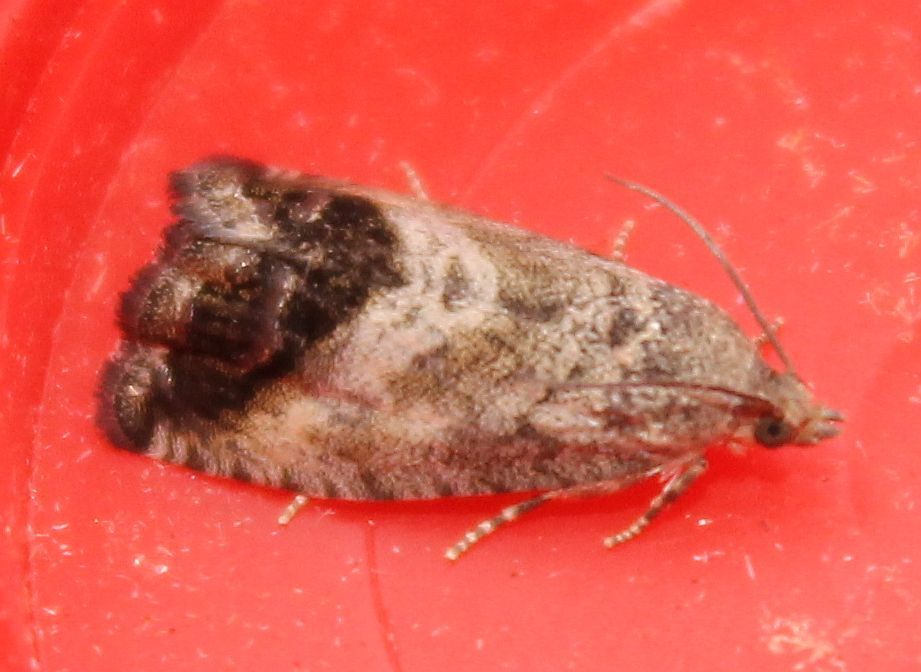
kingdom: Animalia
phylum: Arthropoda
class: Insecta
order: Lepidoptera
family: Tortricidae
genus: Cydia
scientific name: Cydia splendana
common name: De: kastanienwickler, eichenwickler es: oruga de la castaña fr: carpocapse des châtaignes it: cidia o tortrice tardiva delle castagne pt: bichado das castanhas gb: acorn moth, chestnut fruit tortrix
